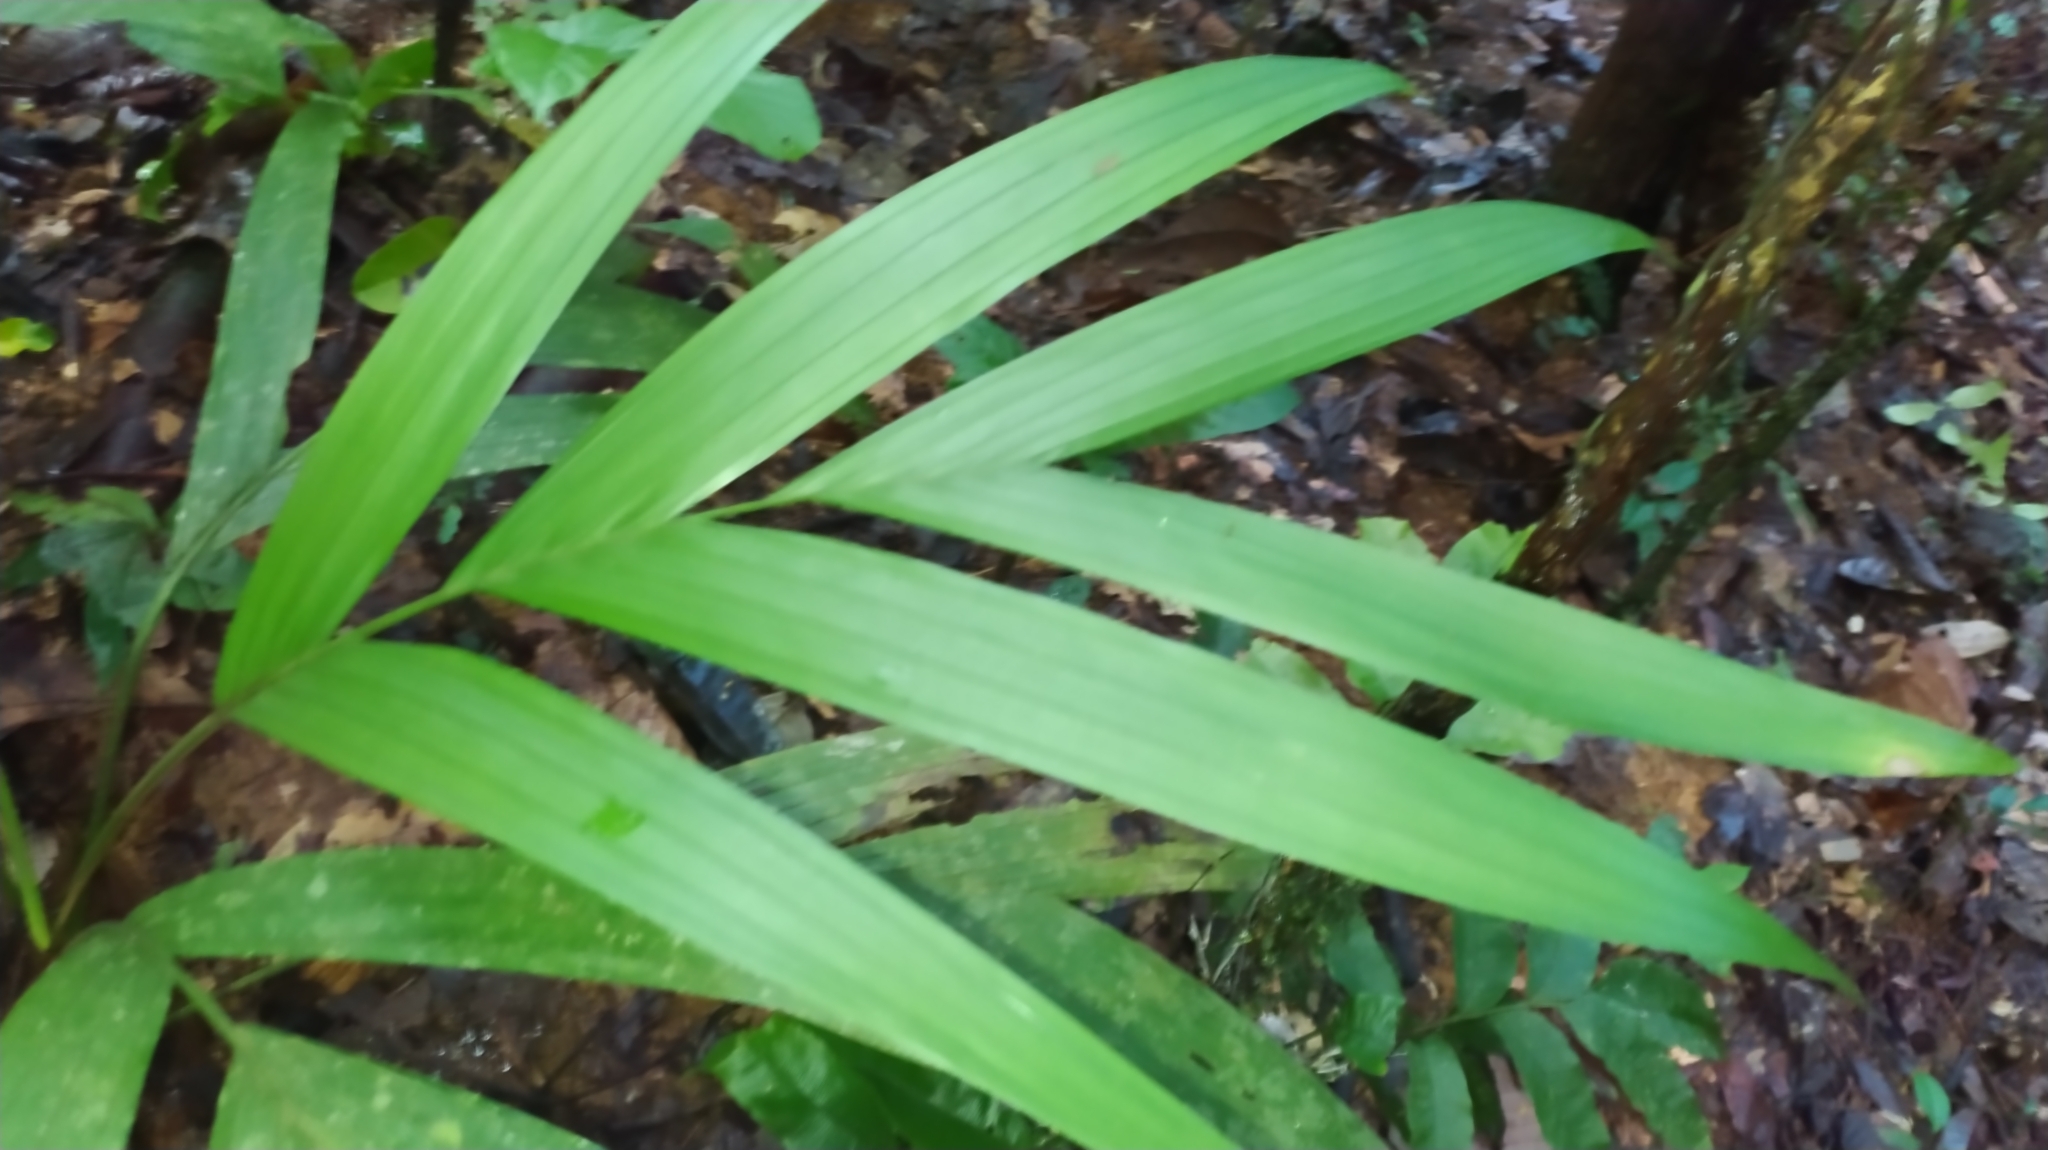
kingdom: Plantae
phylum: Tracheophyta
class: Liliopsida
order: Arecales
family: Arecaceae
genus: Hyospathe
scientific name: Hyospathe elegans
